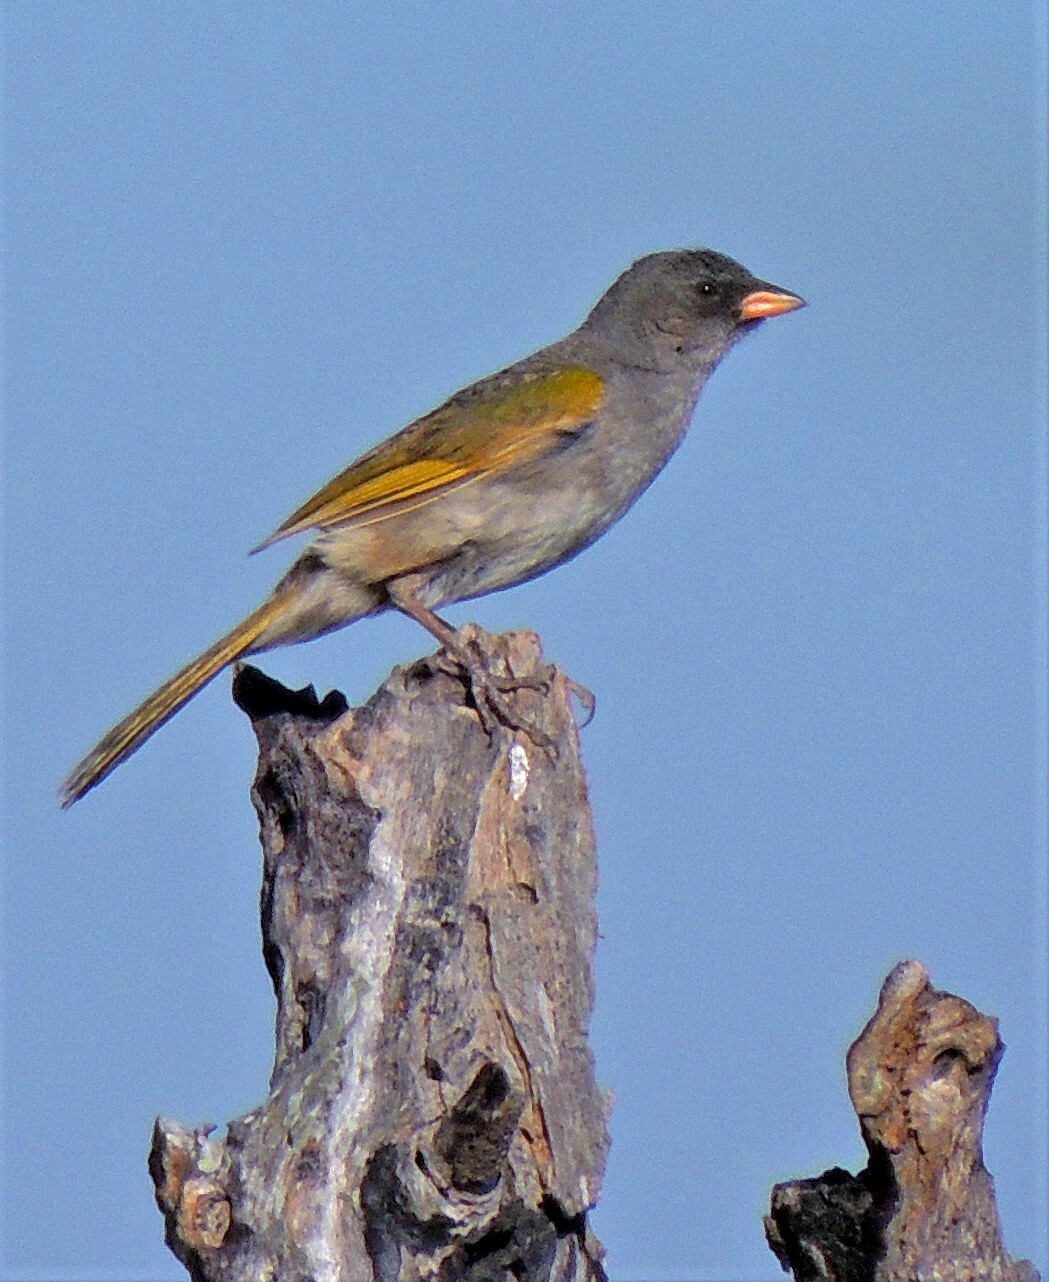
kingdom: Animalia
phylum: Chordata
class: Aves
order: Passeriformes
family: Thraupidae
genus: Embernagra
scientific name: Embernagra platensis
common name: Pampa finch
